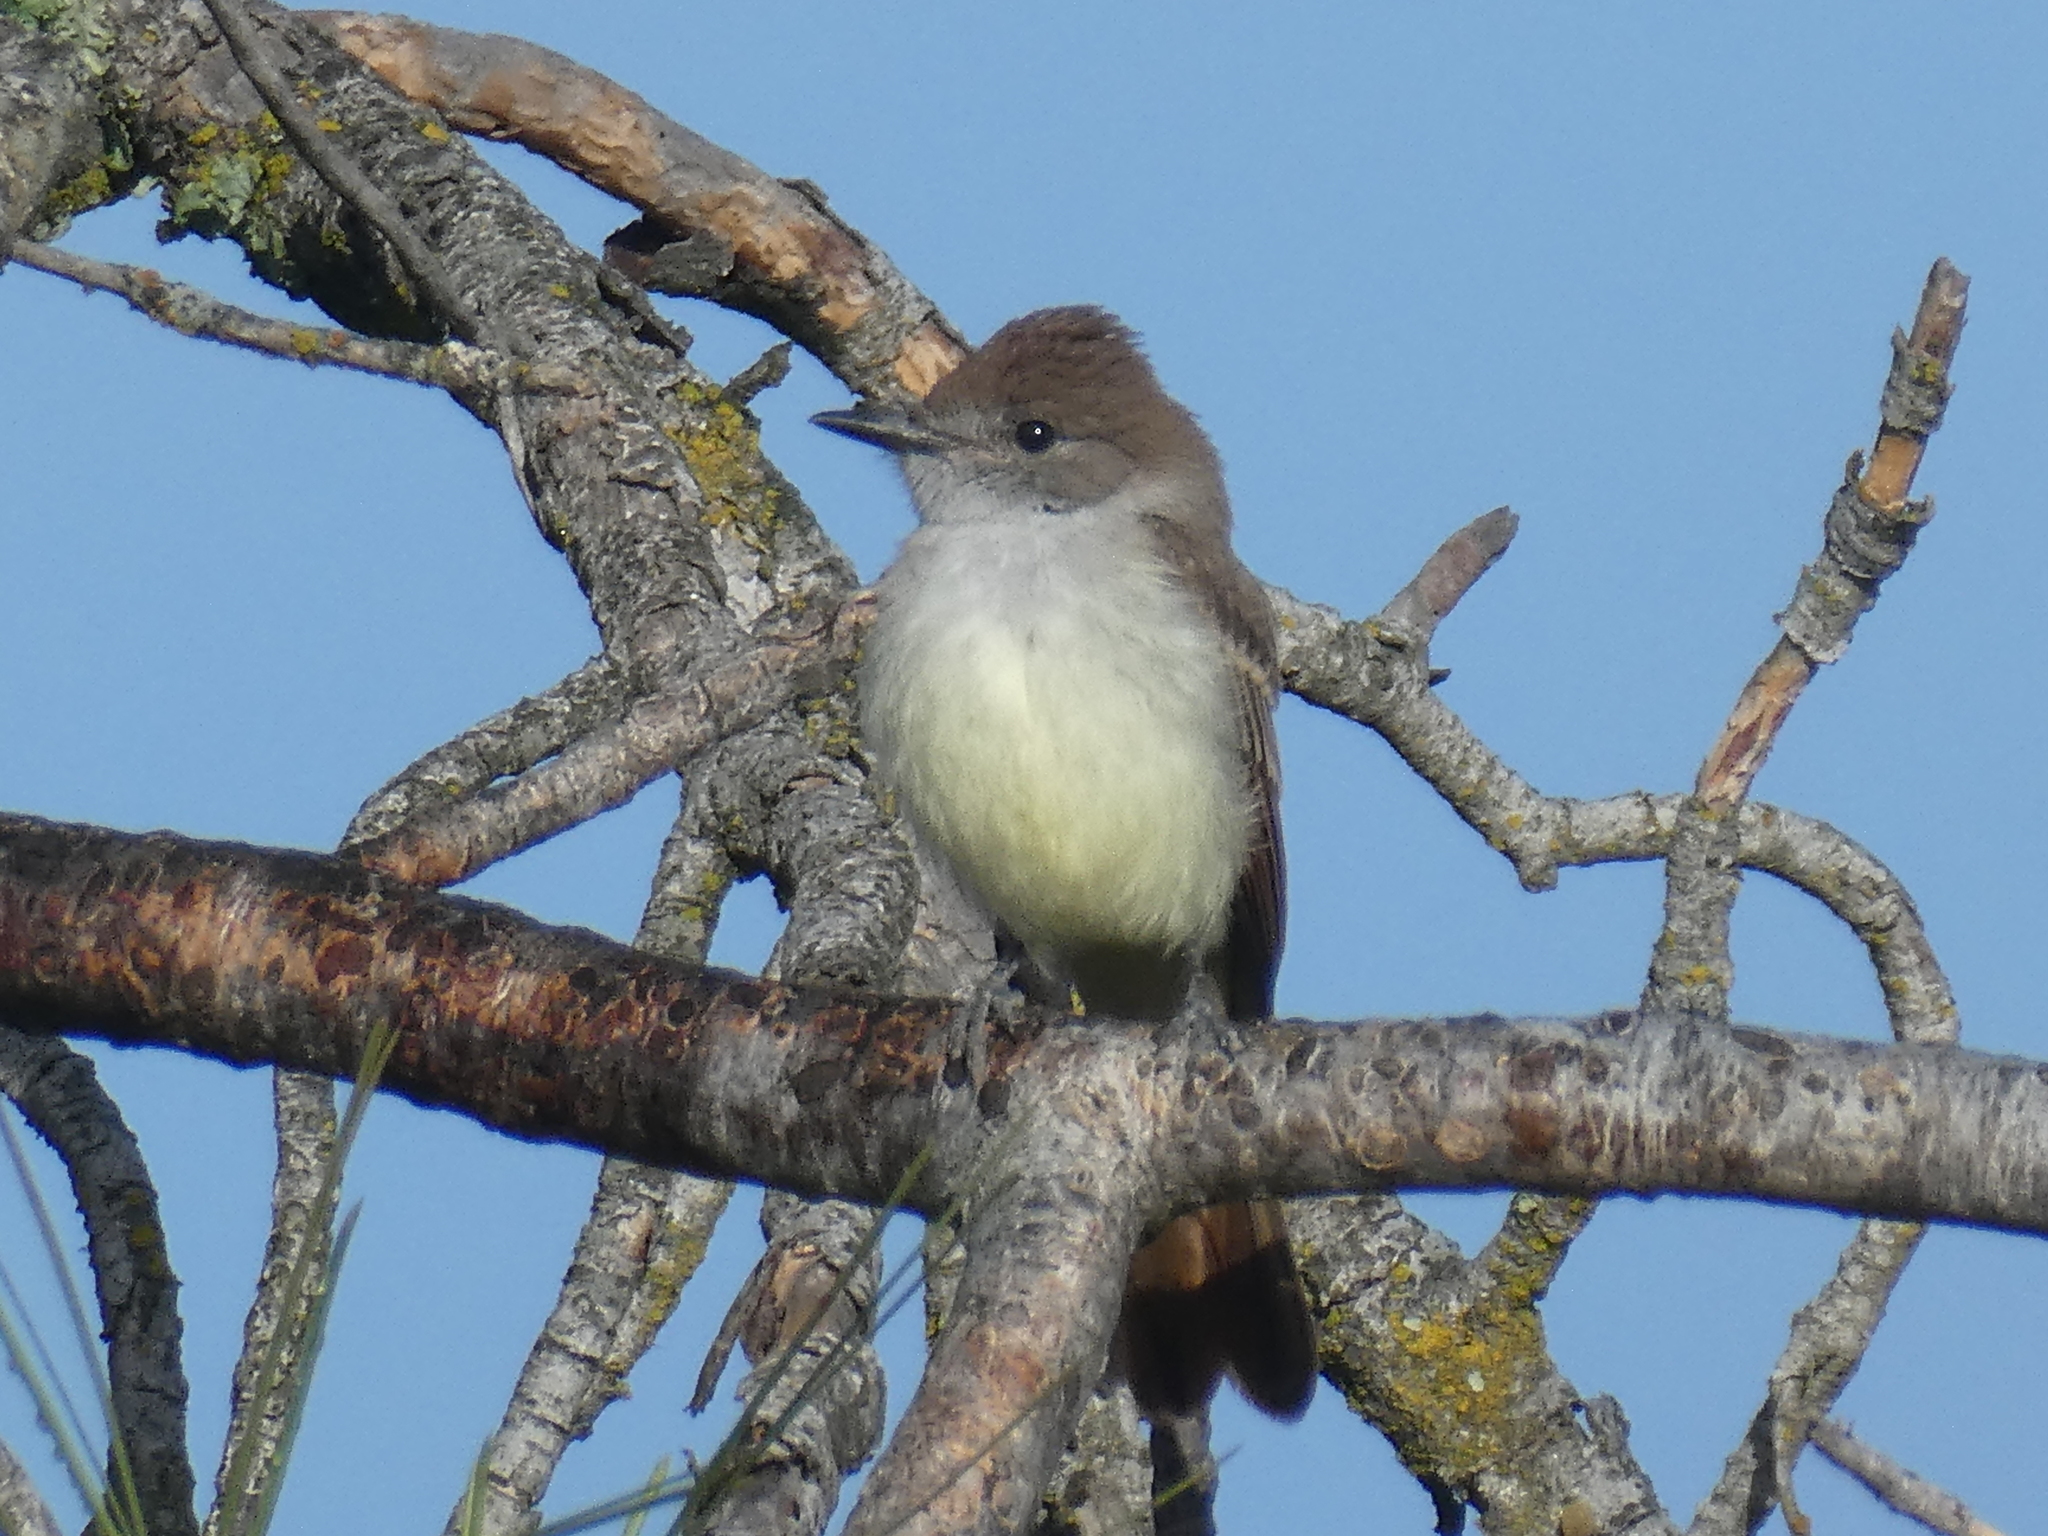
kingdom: Animalia
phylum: Chordata
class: Aves
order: Passeriformes
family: Tyrannidae
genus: Myiarchus
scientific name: Myiarchus cinerascens
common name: Ash-throated flycatcher
